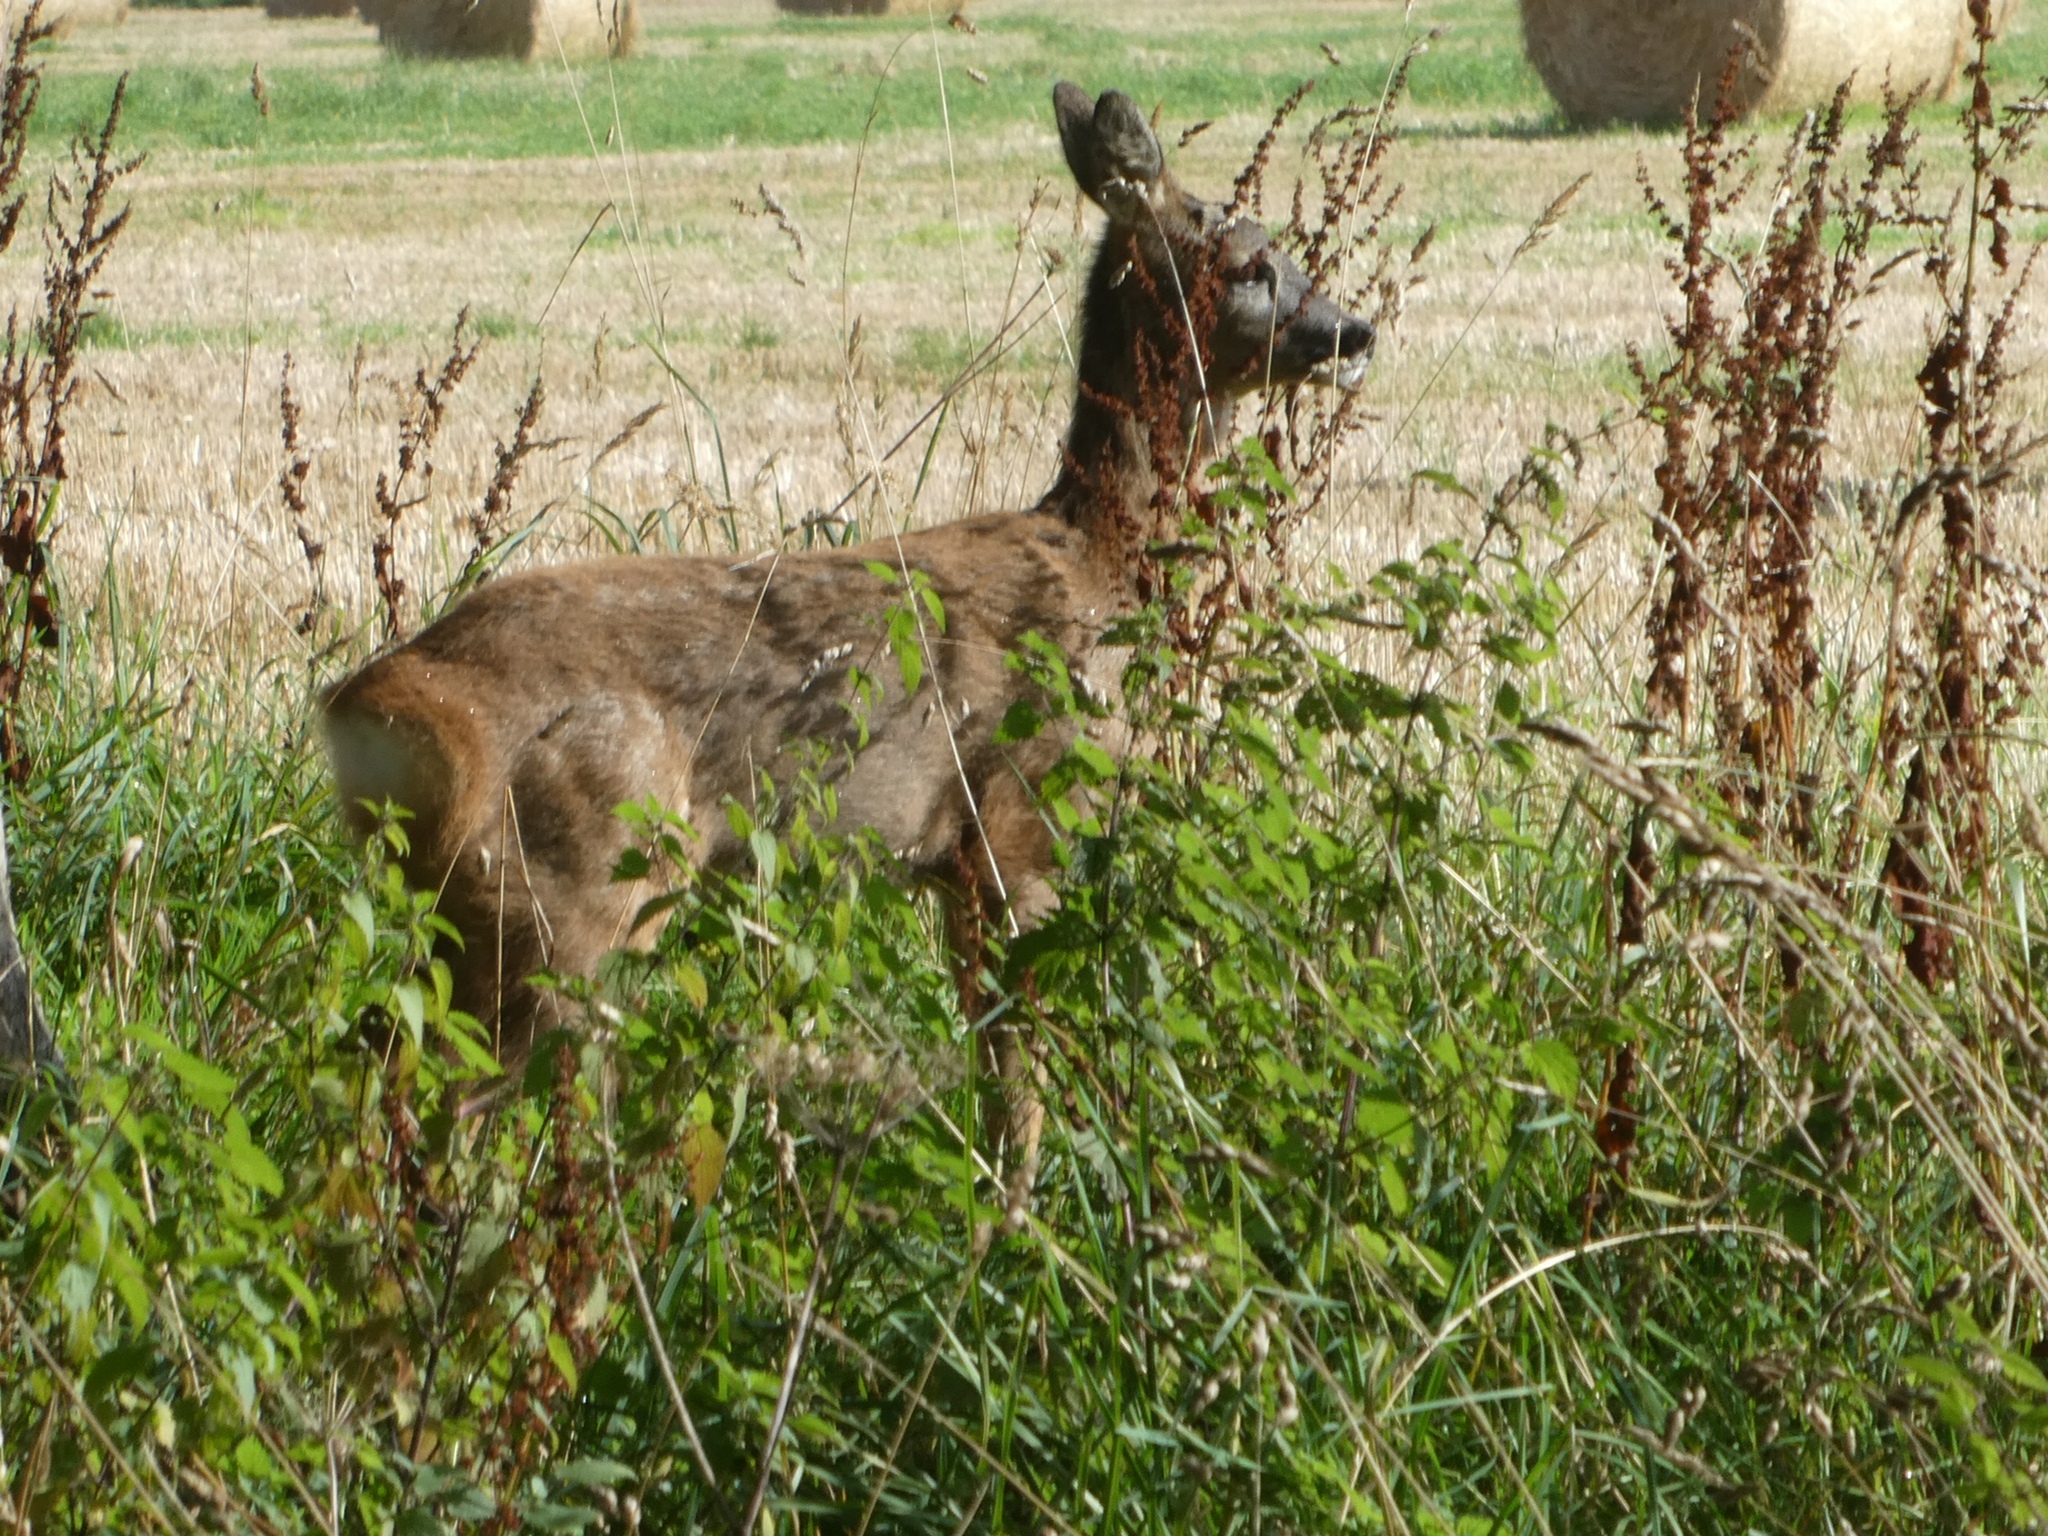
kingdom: Animalia
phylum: Chordata
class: Mammalia
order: Artiodactyla
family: Cervidae
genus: Capreolus
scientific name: Capreolus capreolus
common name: Western roe deer
